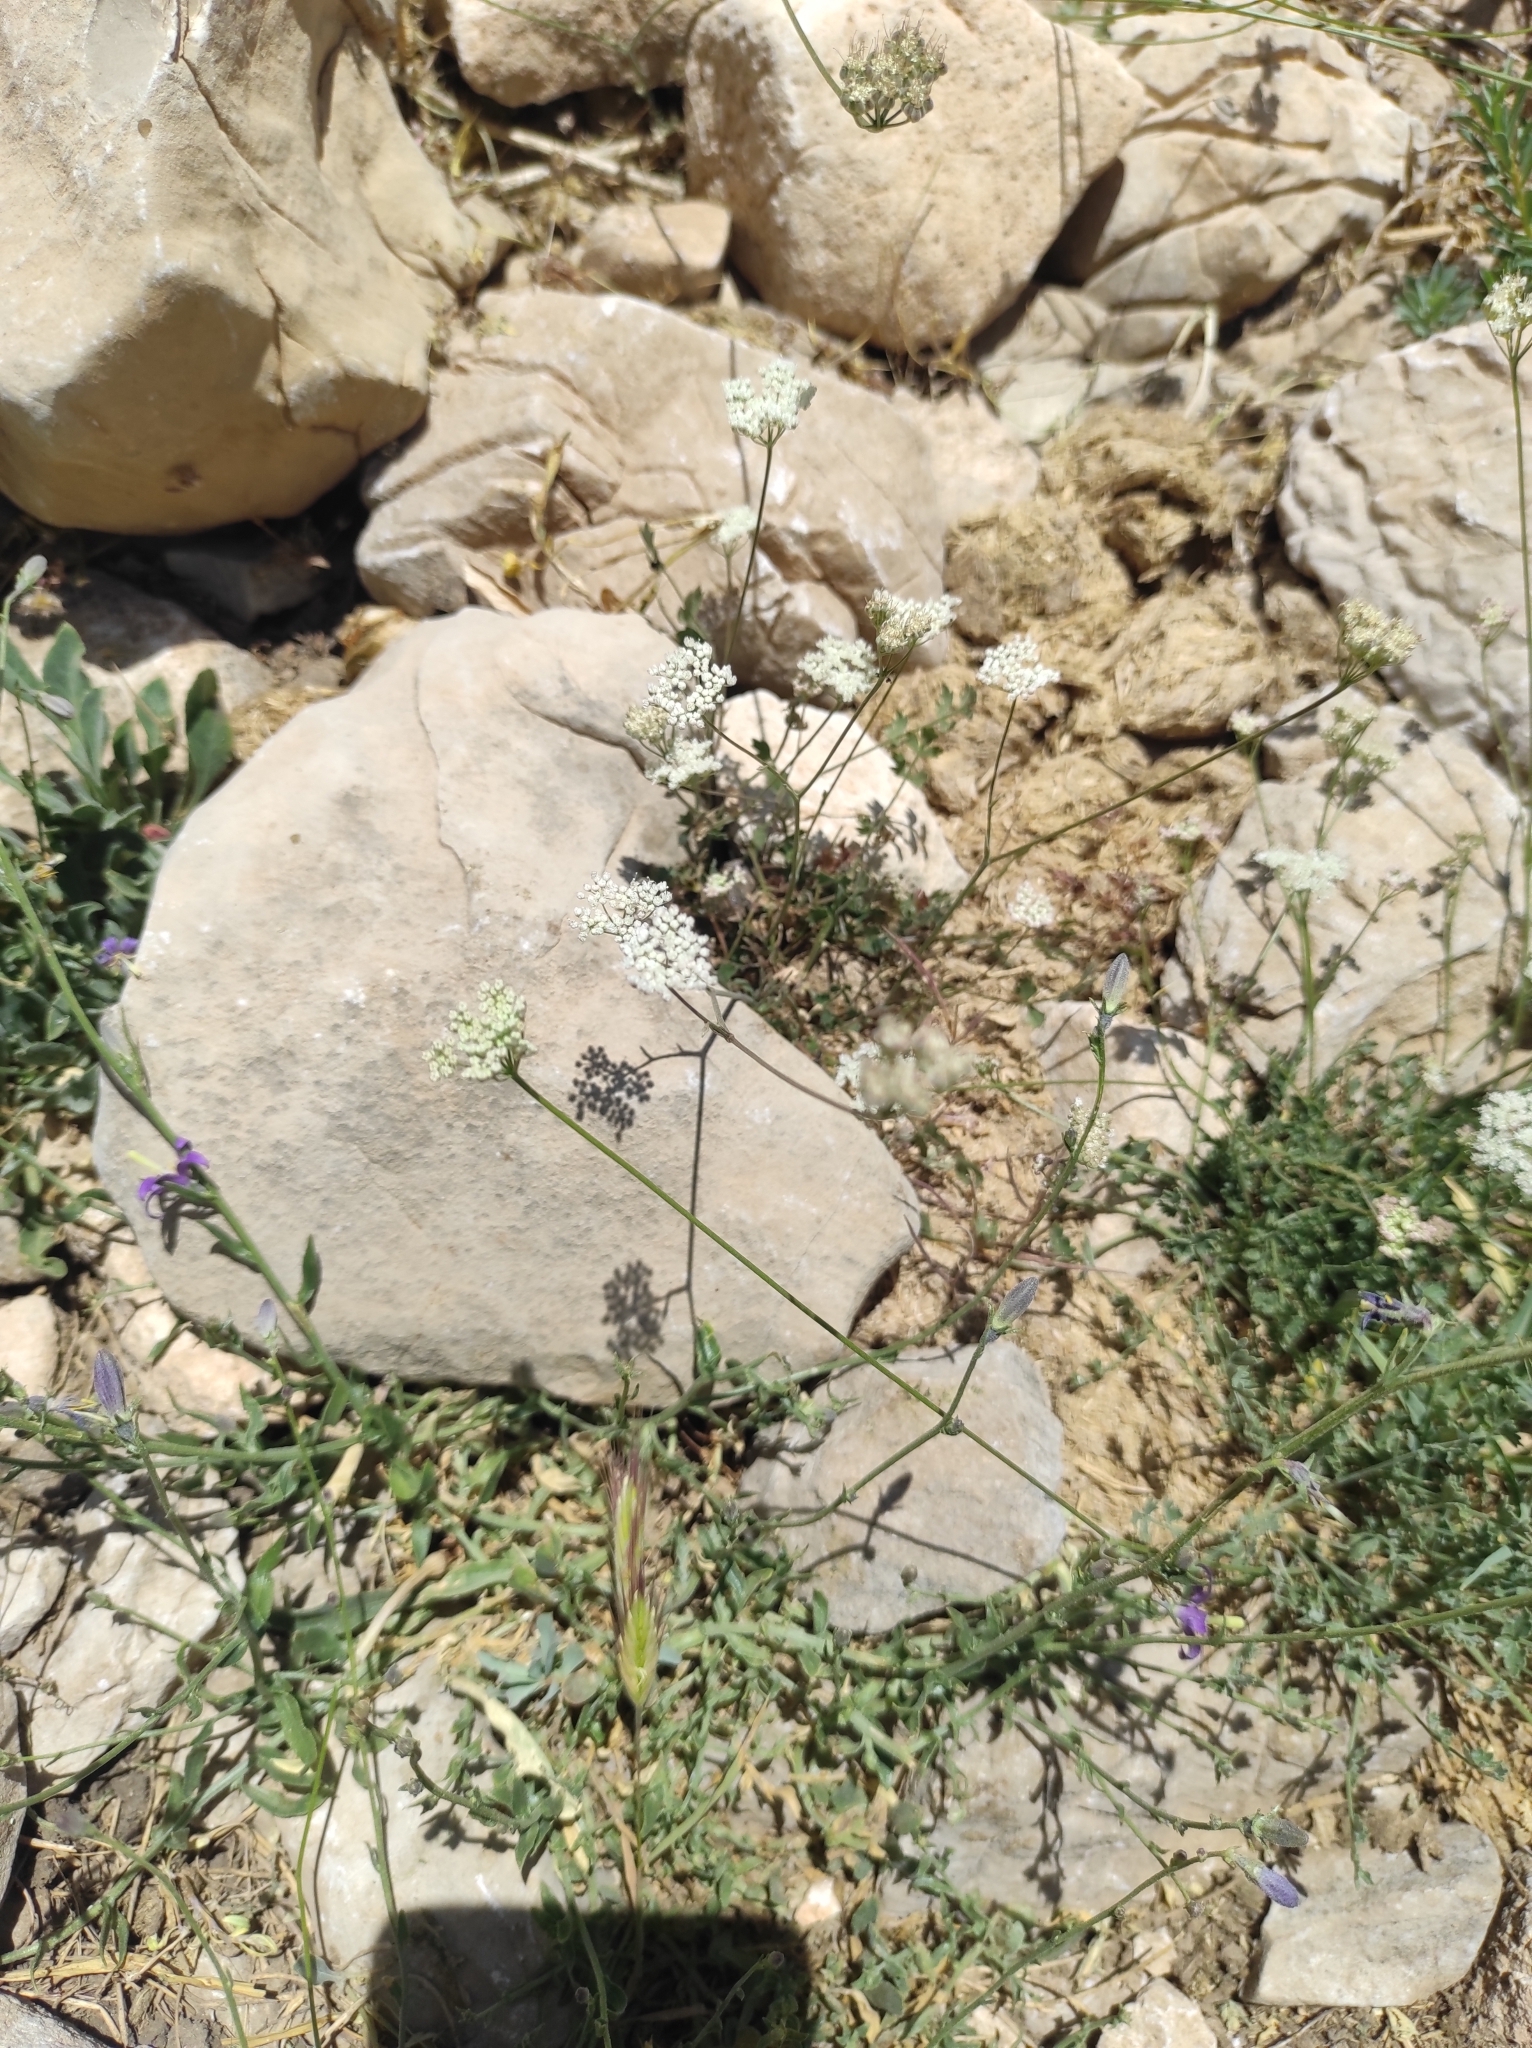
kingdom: Plantae
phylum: Tracheophyta
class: Magnoliopsida
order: Apiales
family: Apiaceae
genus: Pimpinella
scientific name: Pimpinella tragium
